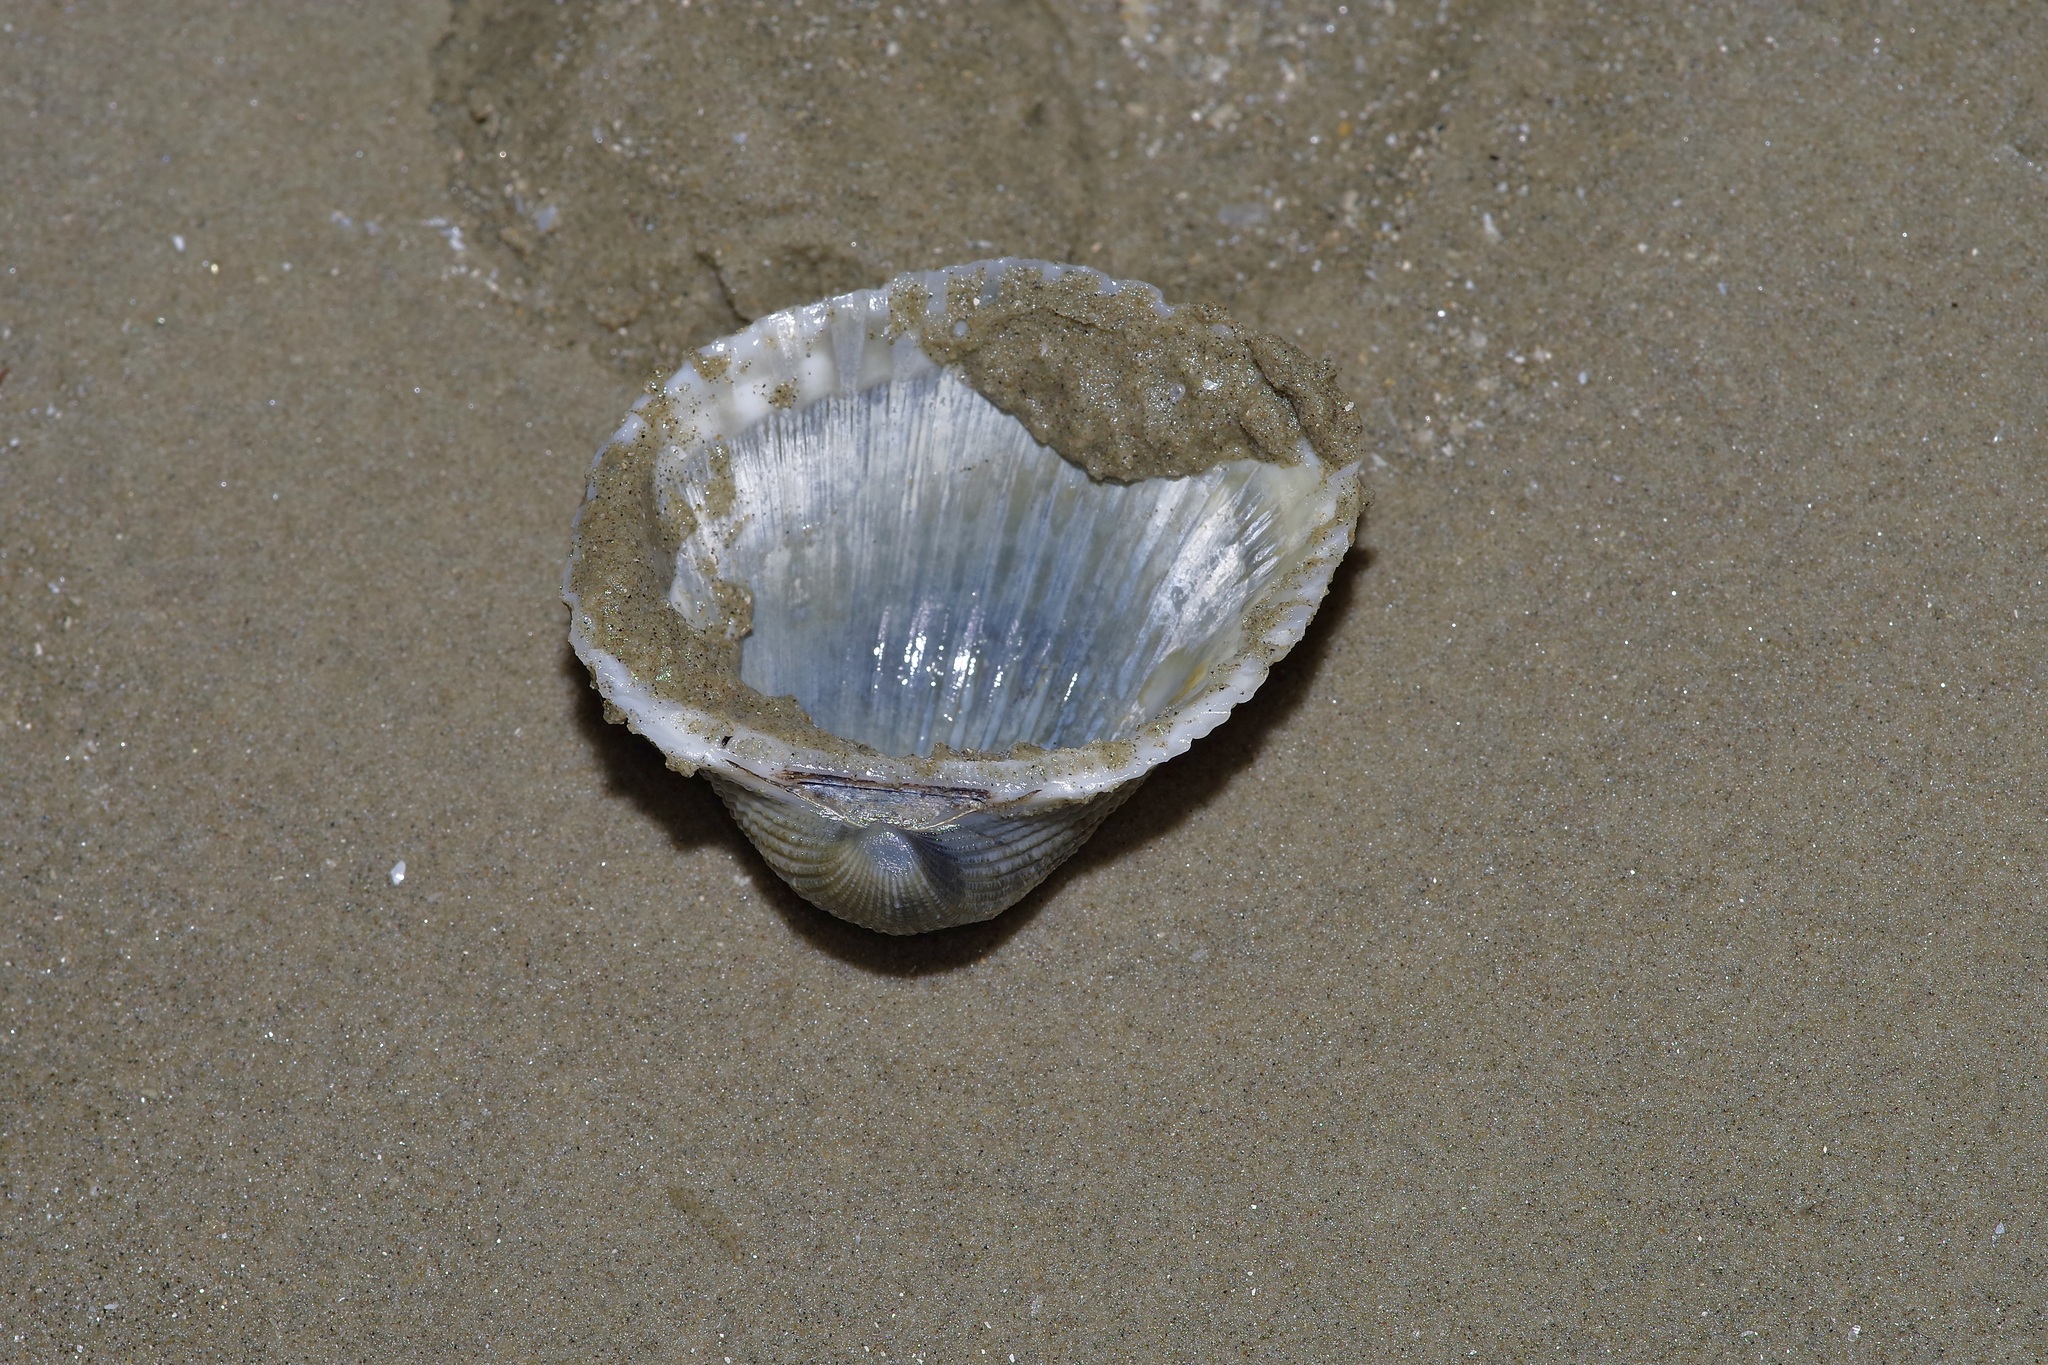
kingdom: Animalia
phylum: Mollusca
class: Bivalvia
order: Arcida
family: Arcidae
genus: Anadara
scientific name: Anadara chemnitzii
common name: Chemnitz's triangular ark
